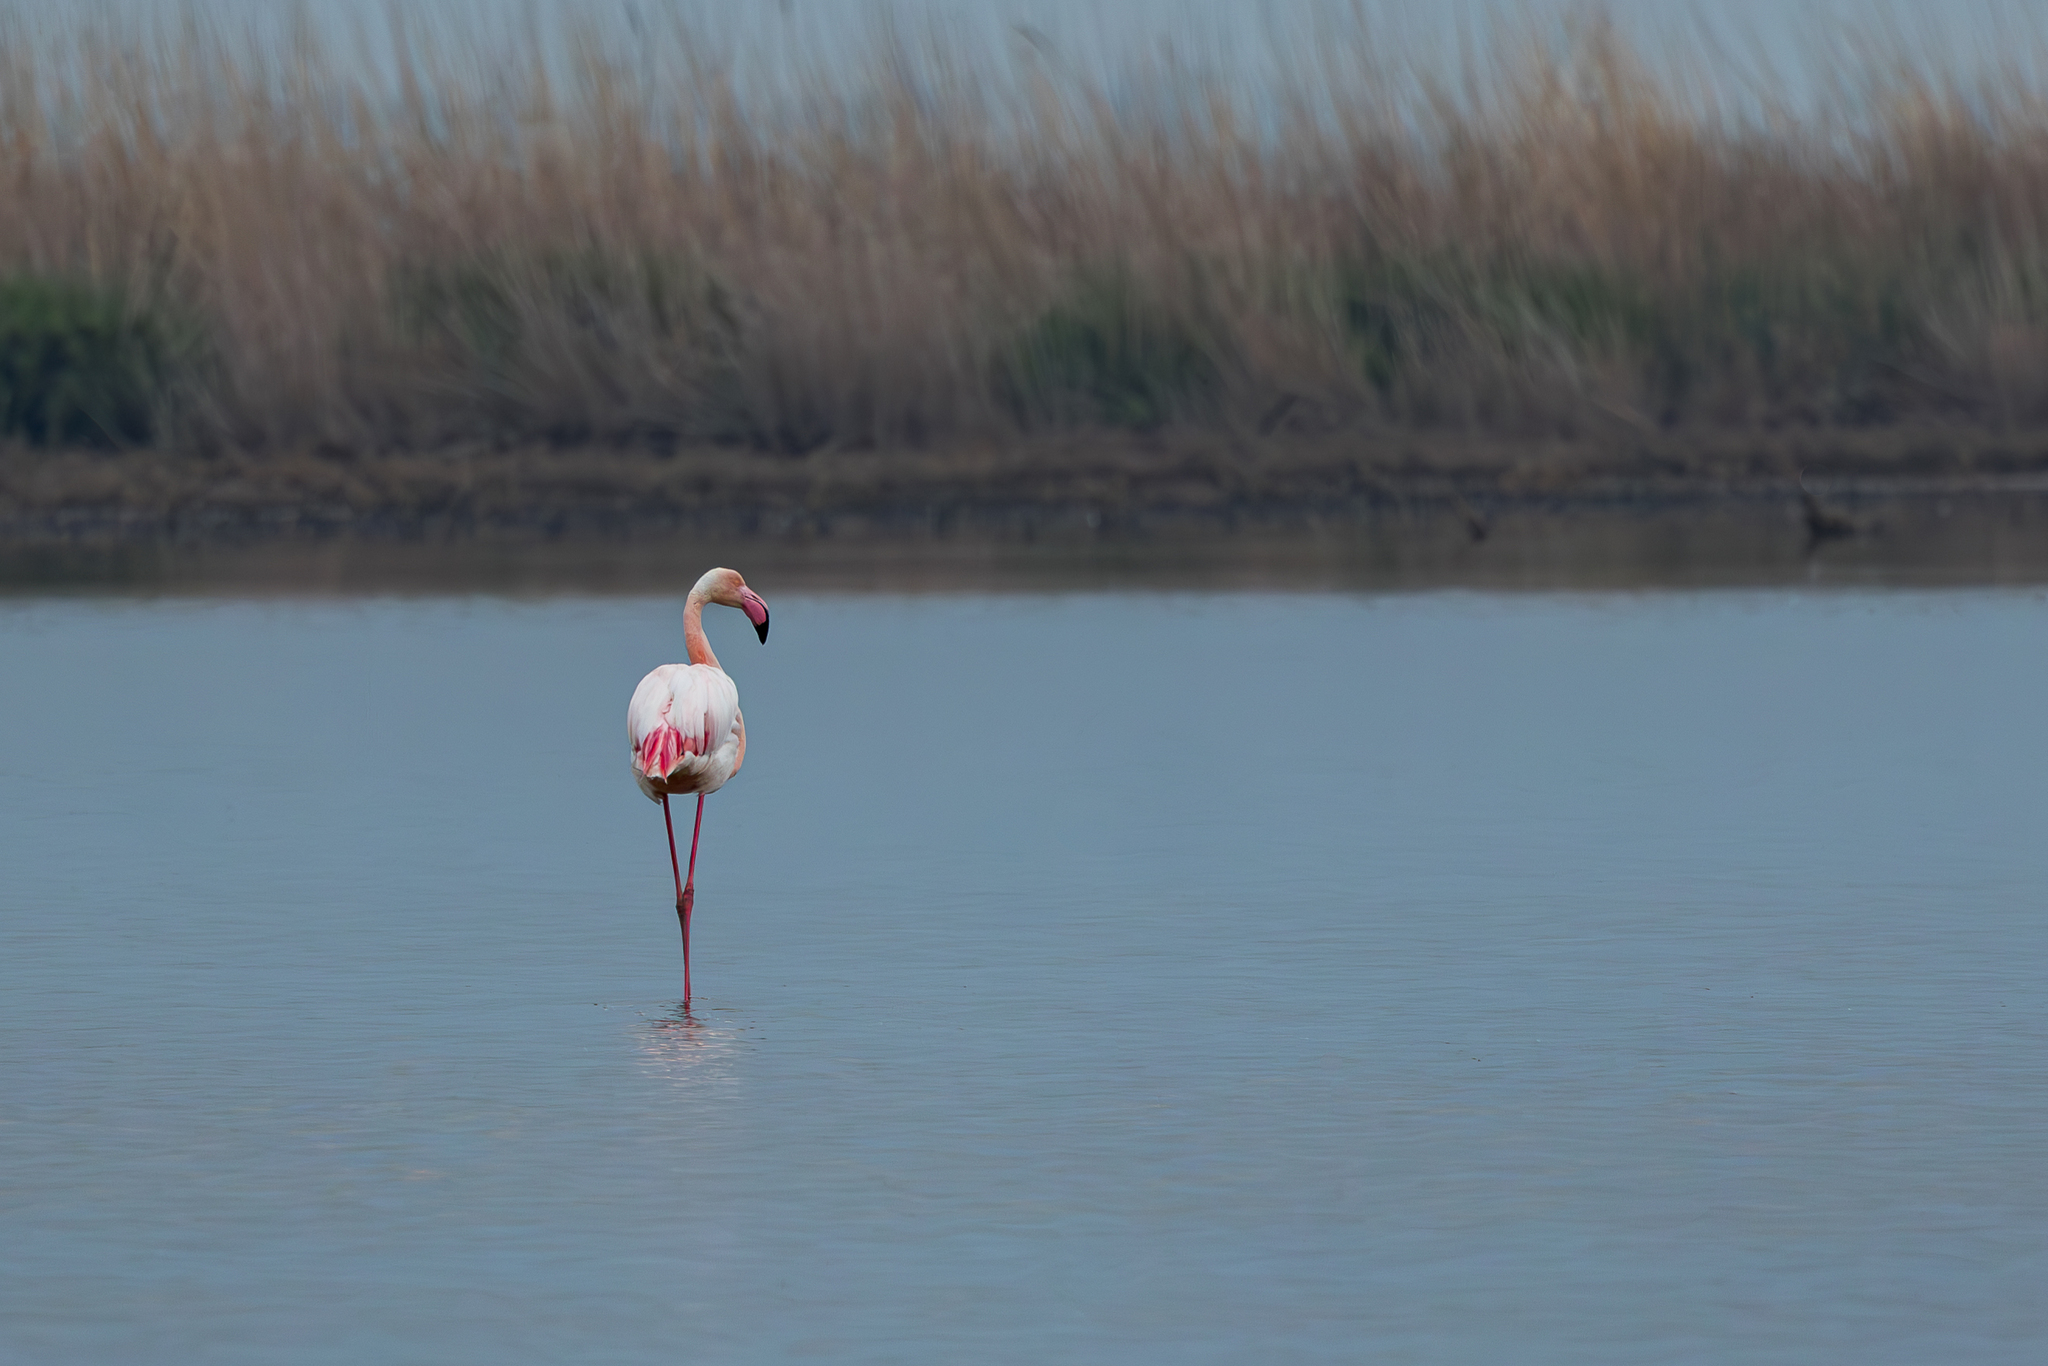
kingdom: Animalia
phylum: Chordata
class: Aves
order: Phoenicopteriformes
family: Phoenicopteridae
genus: Phoenicopterus
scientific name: Phoenicopterus roseus
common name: Greater flamingo
